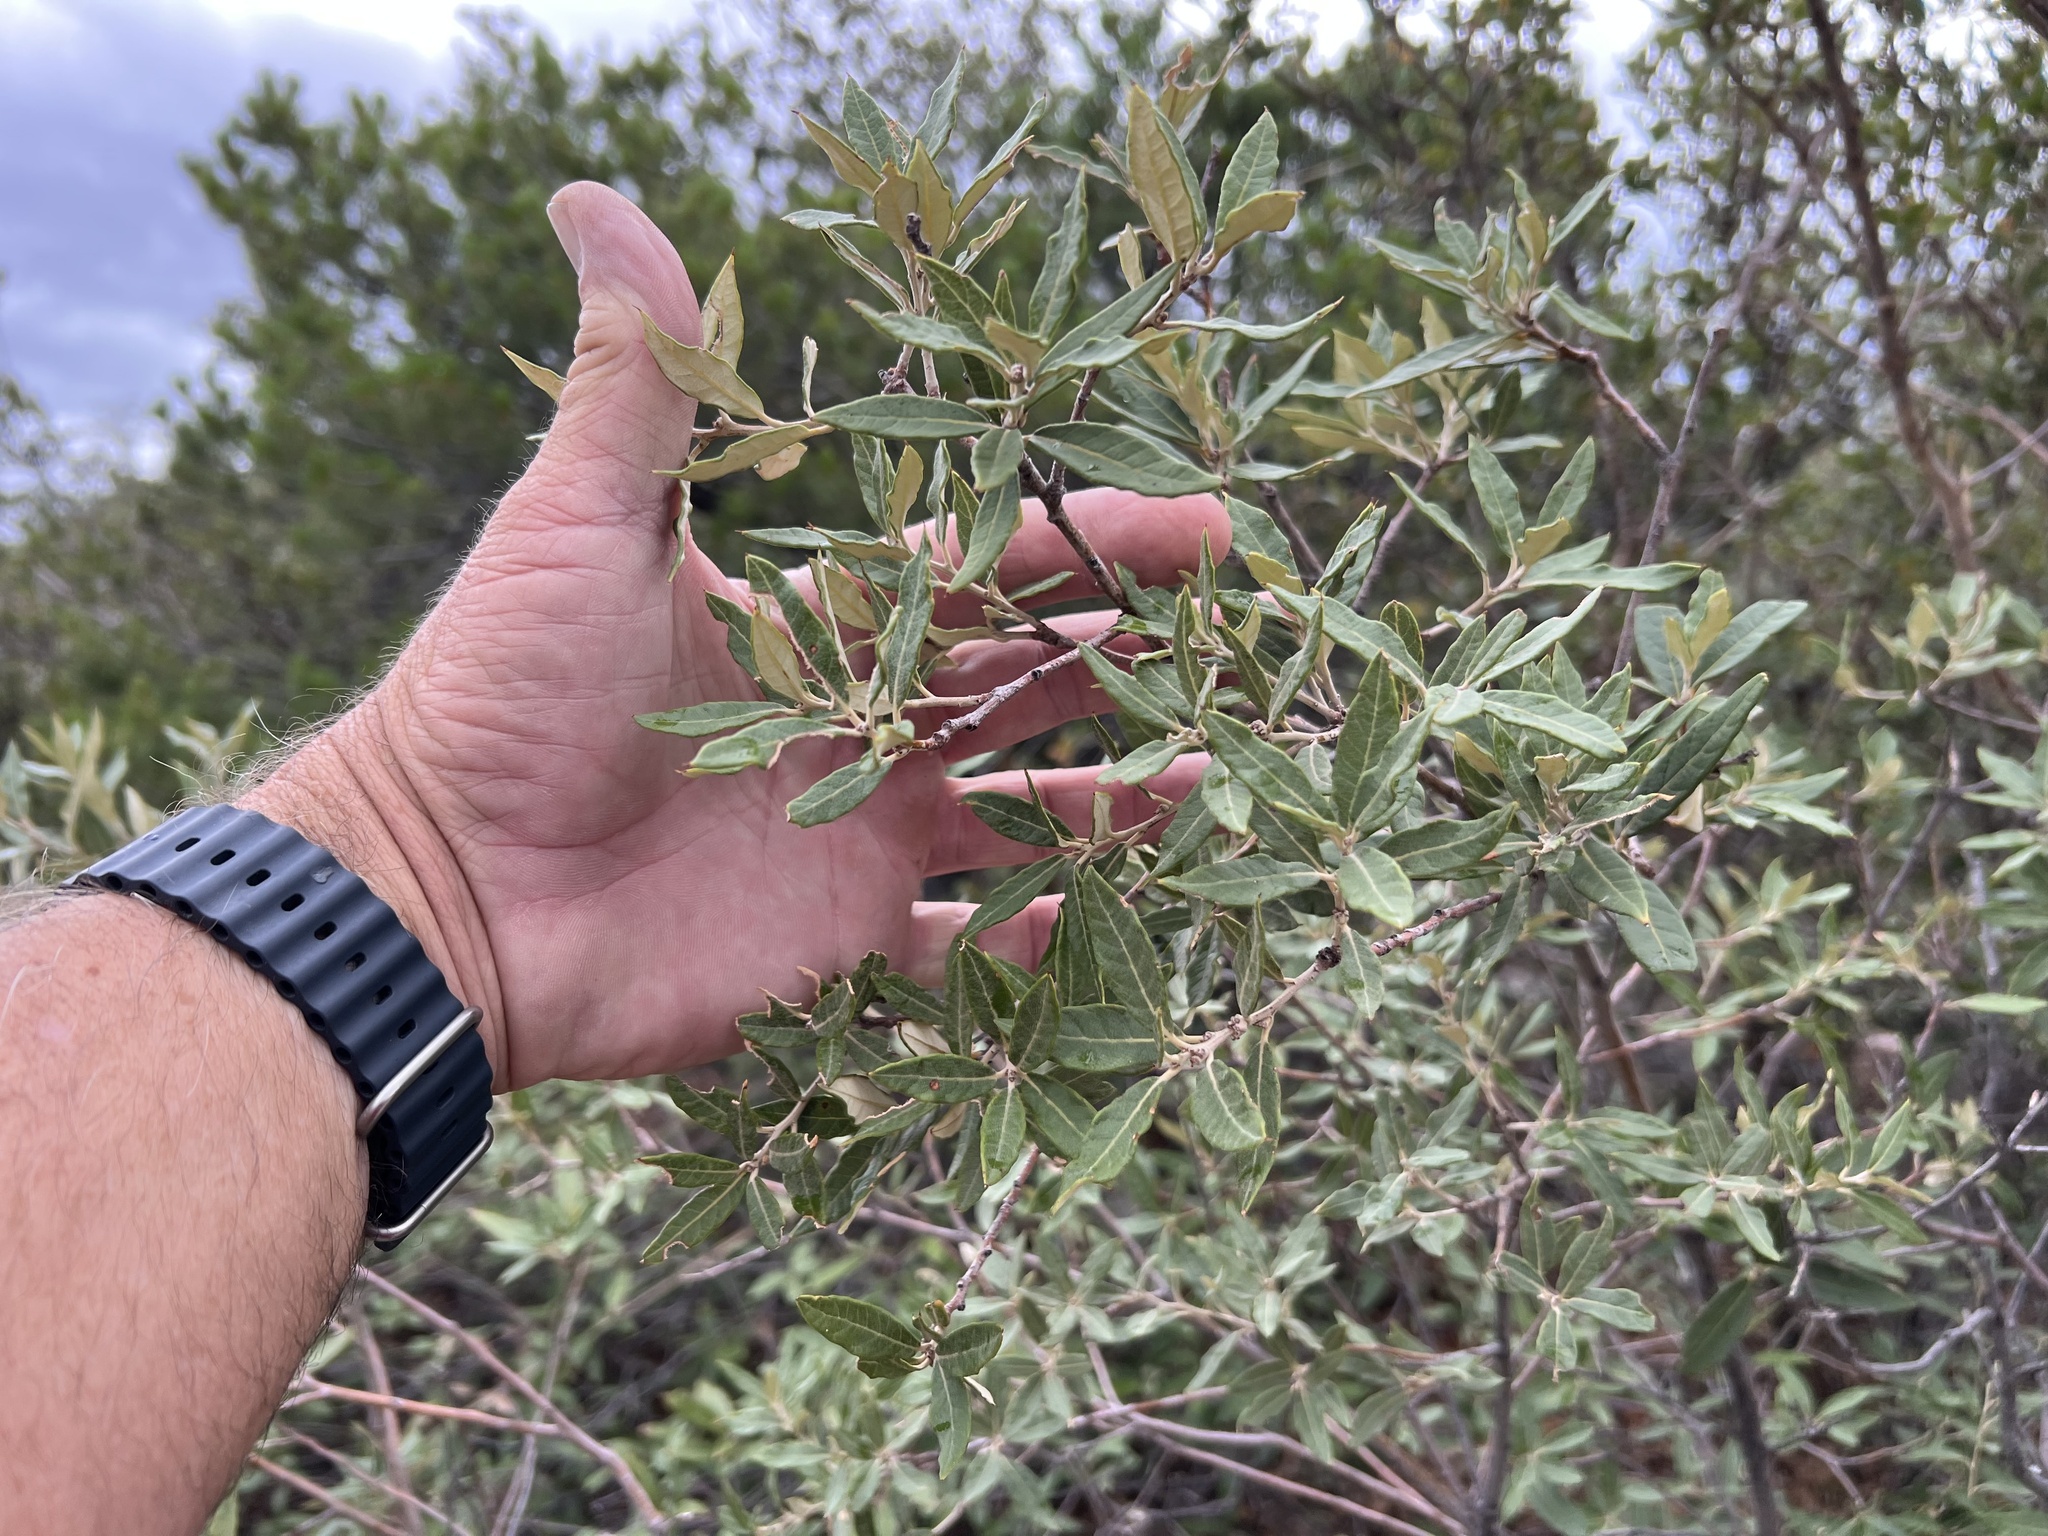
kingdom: Plantae
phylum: Tracheophyta
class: Magnoliopsida
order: Fagales
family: Fagaceae
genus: Quercus
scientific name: Quercus hypoleucoides
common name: Silverleaf oak
